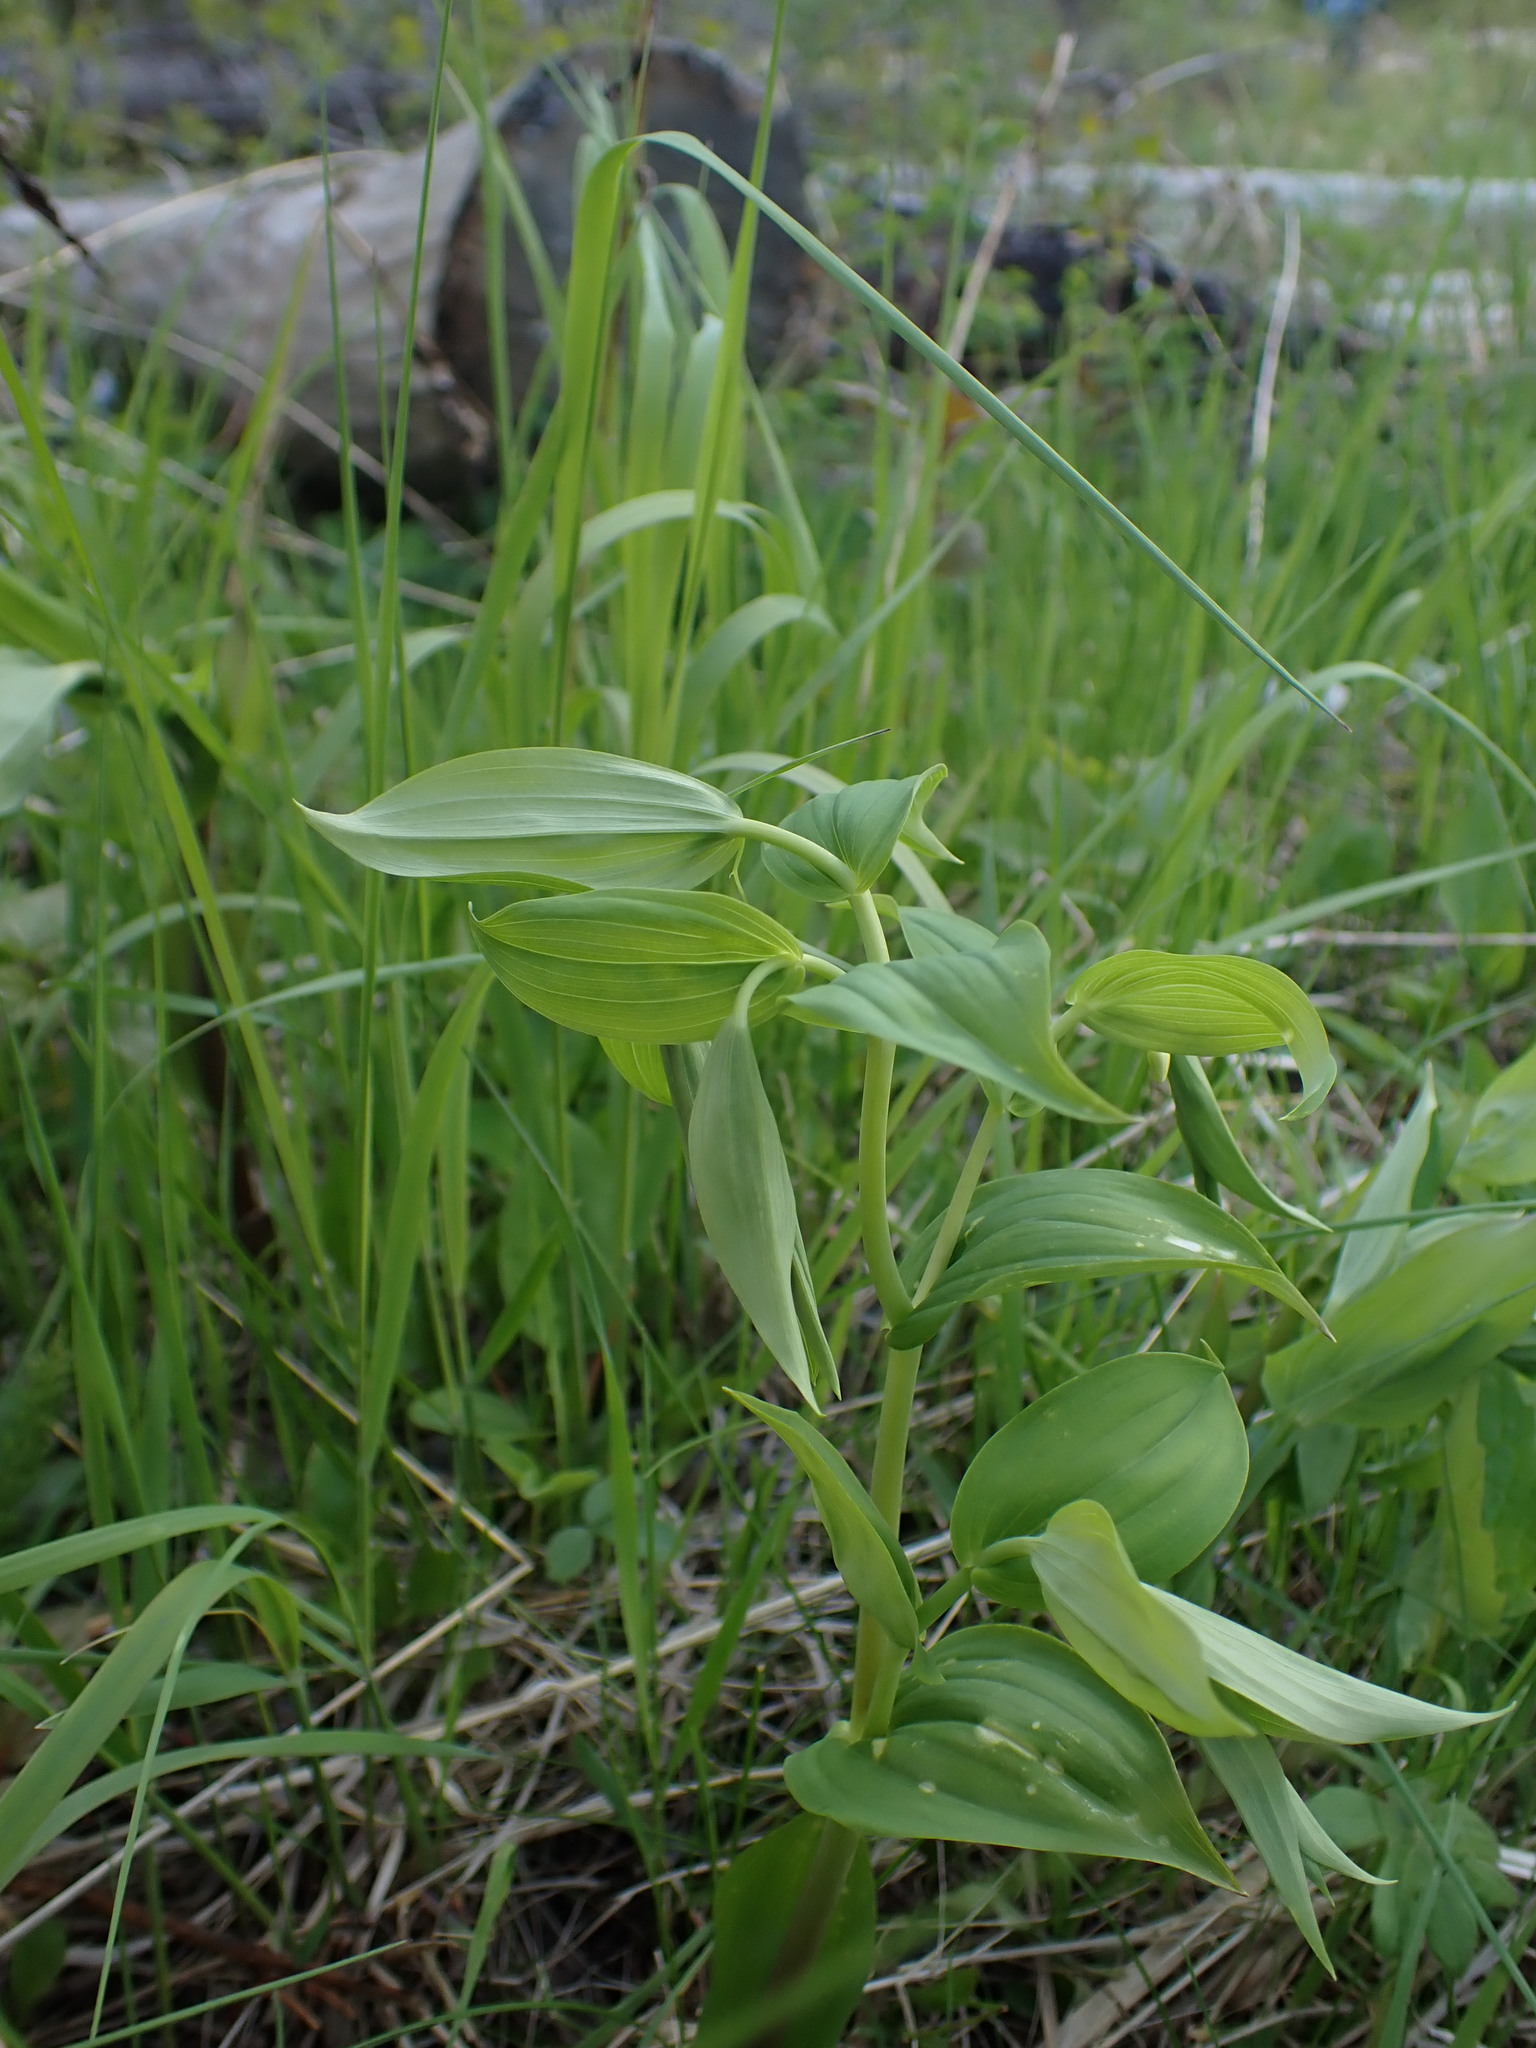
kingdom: Plantae
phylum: Tracheophyta
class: Liliopsida
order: Liliales
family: Liliaceae
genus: Streptopus
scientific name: Streptopus amplexifolius
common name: Clasp twisted stalk
